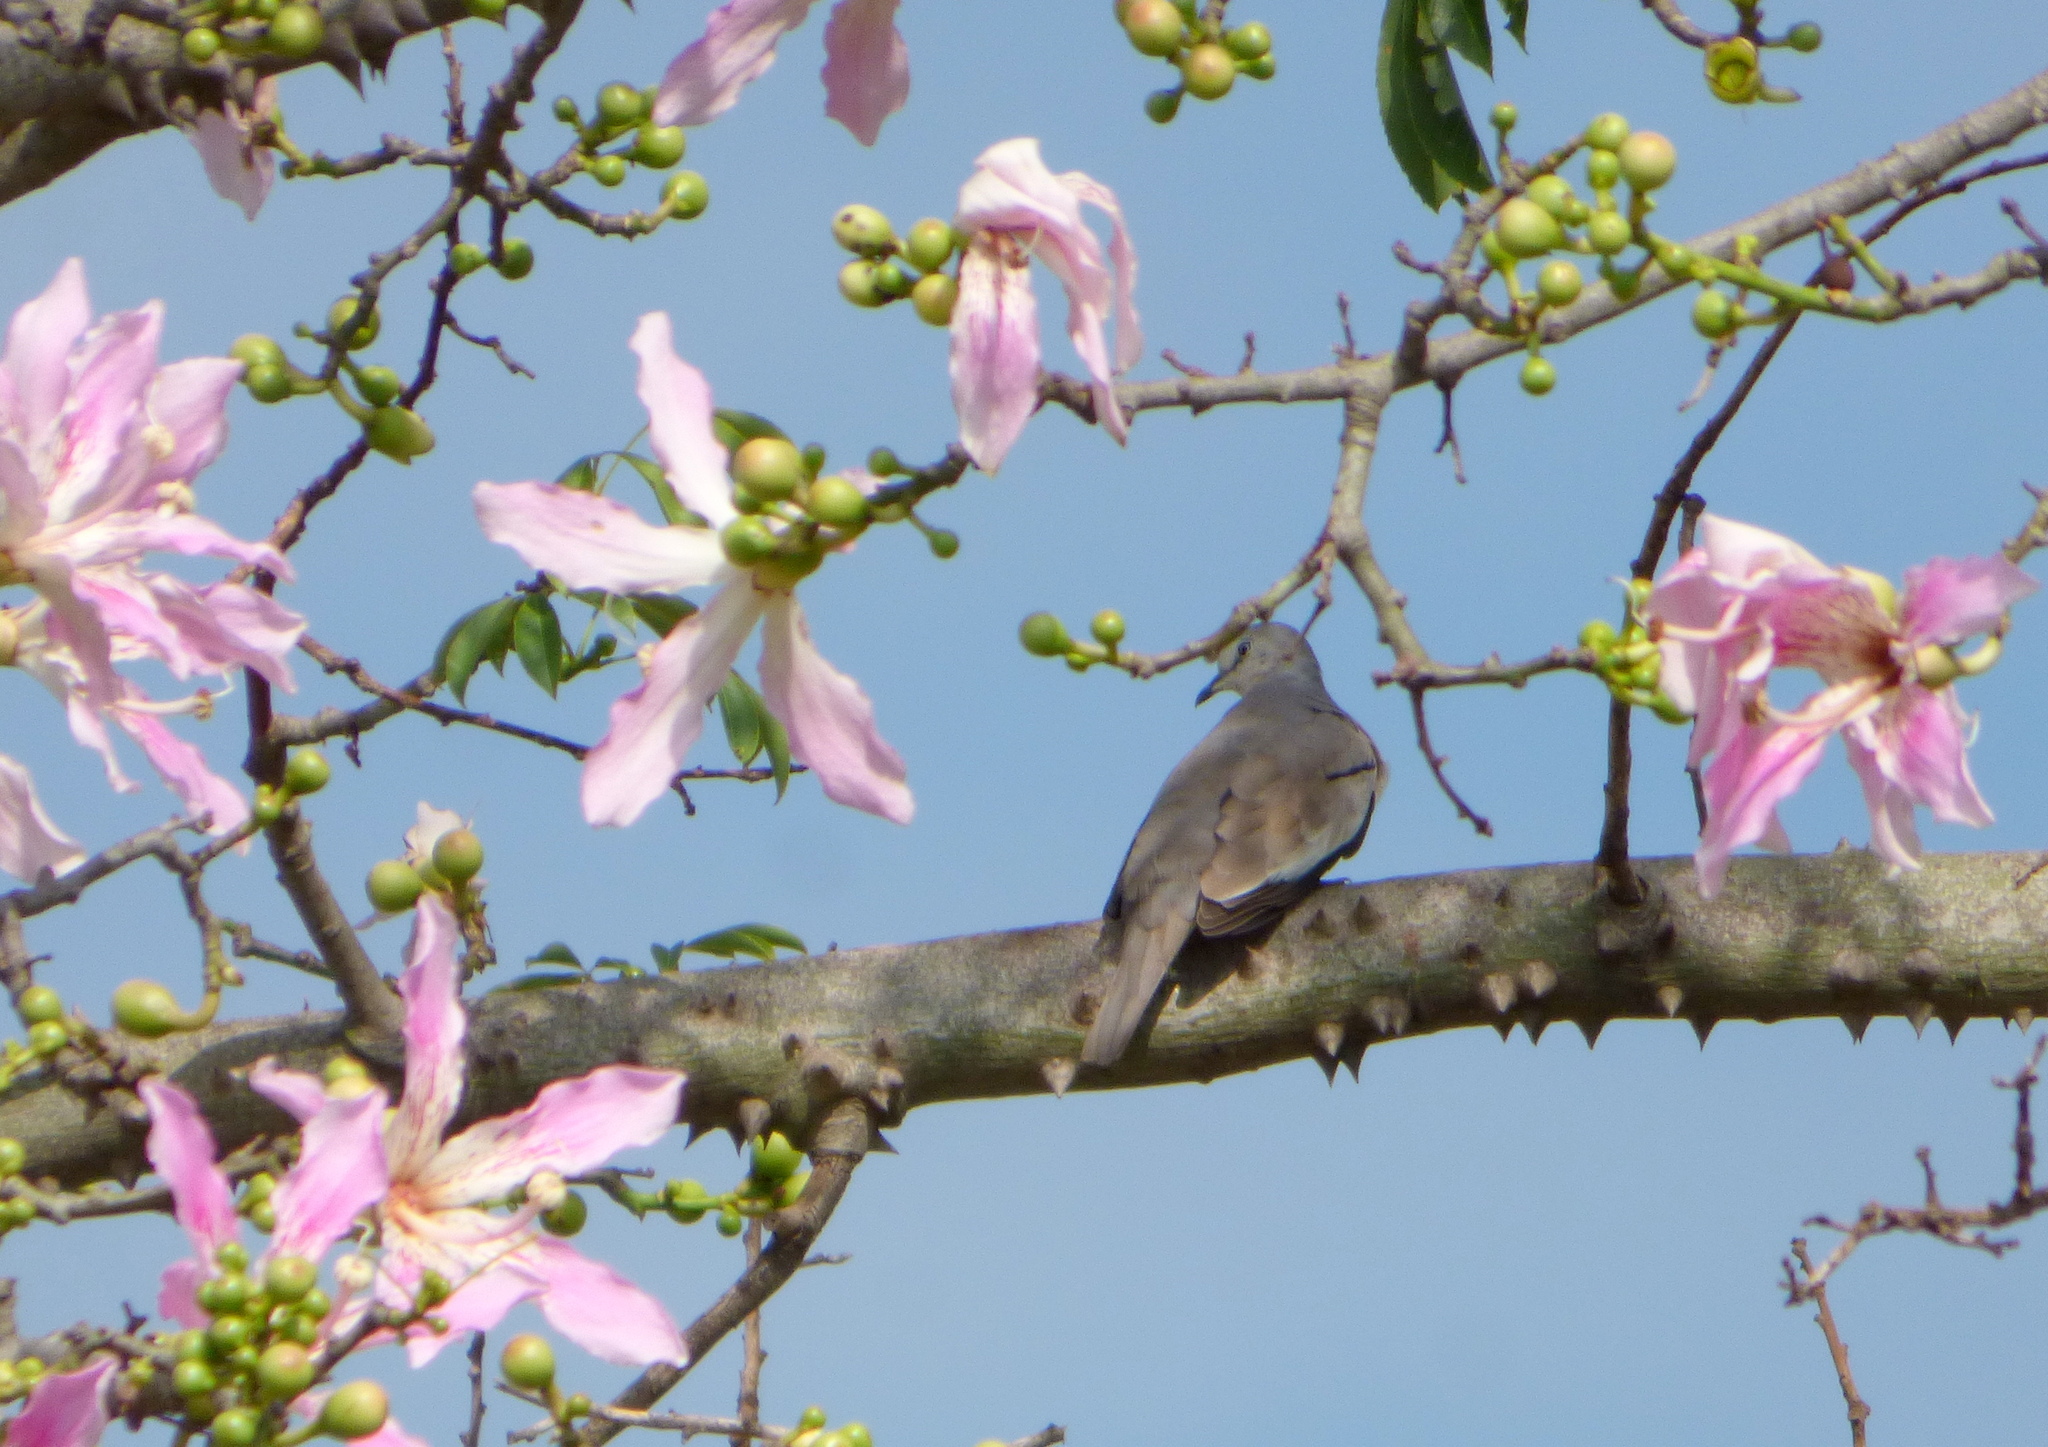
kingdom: Animalia
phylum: Chordata
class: Aves
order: Columbiformes
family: Columbidae
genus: Columbina
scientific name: Columbina picui
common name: Picui ground dove
